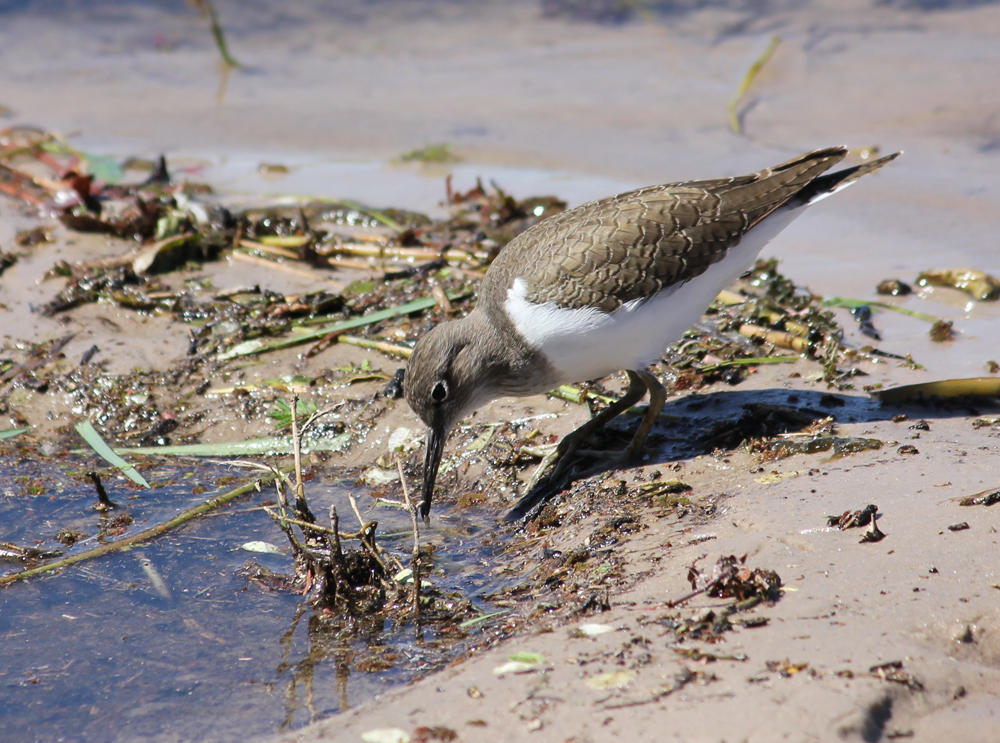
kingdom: Animalia
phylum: Chordata
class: Aves
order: Charadriiformes
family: Scolopacidae
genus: Actitis
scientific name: Actitis hypoleucos
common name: Common sandpiper
